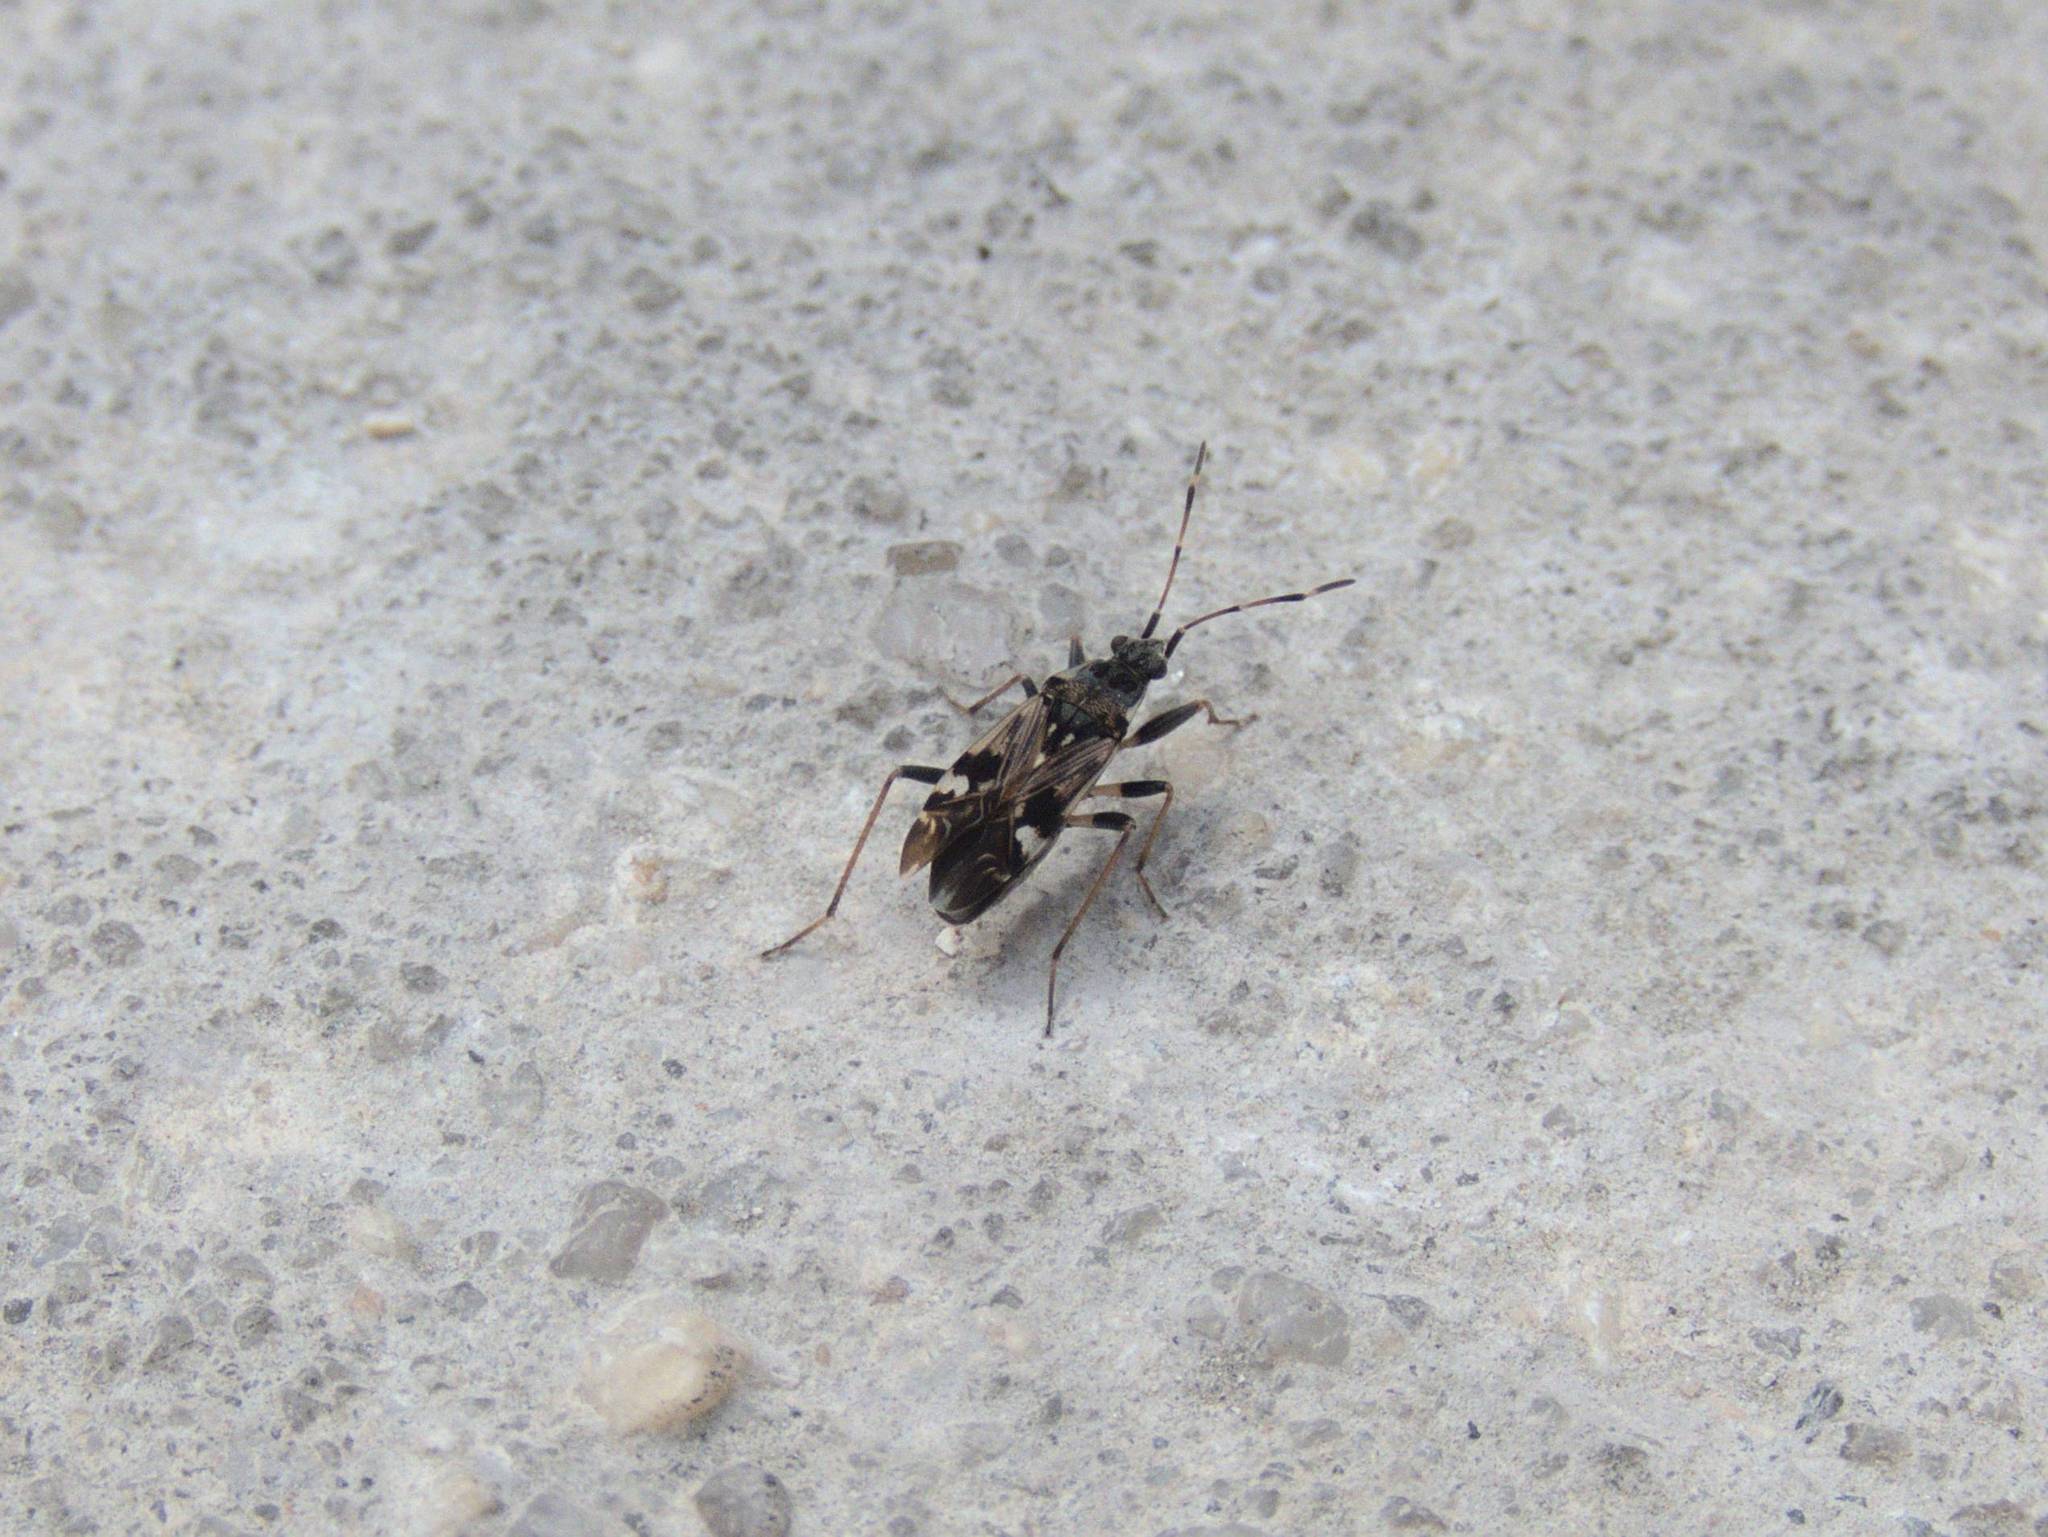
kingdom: Animalia
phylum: Arthropoda
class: Insecta
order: Hemiptera
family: Rhyparochromidae
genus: Beosus
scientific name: Beosus maritimus
